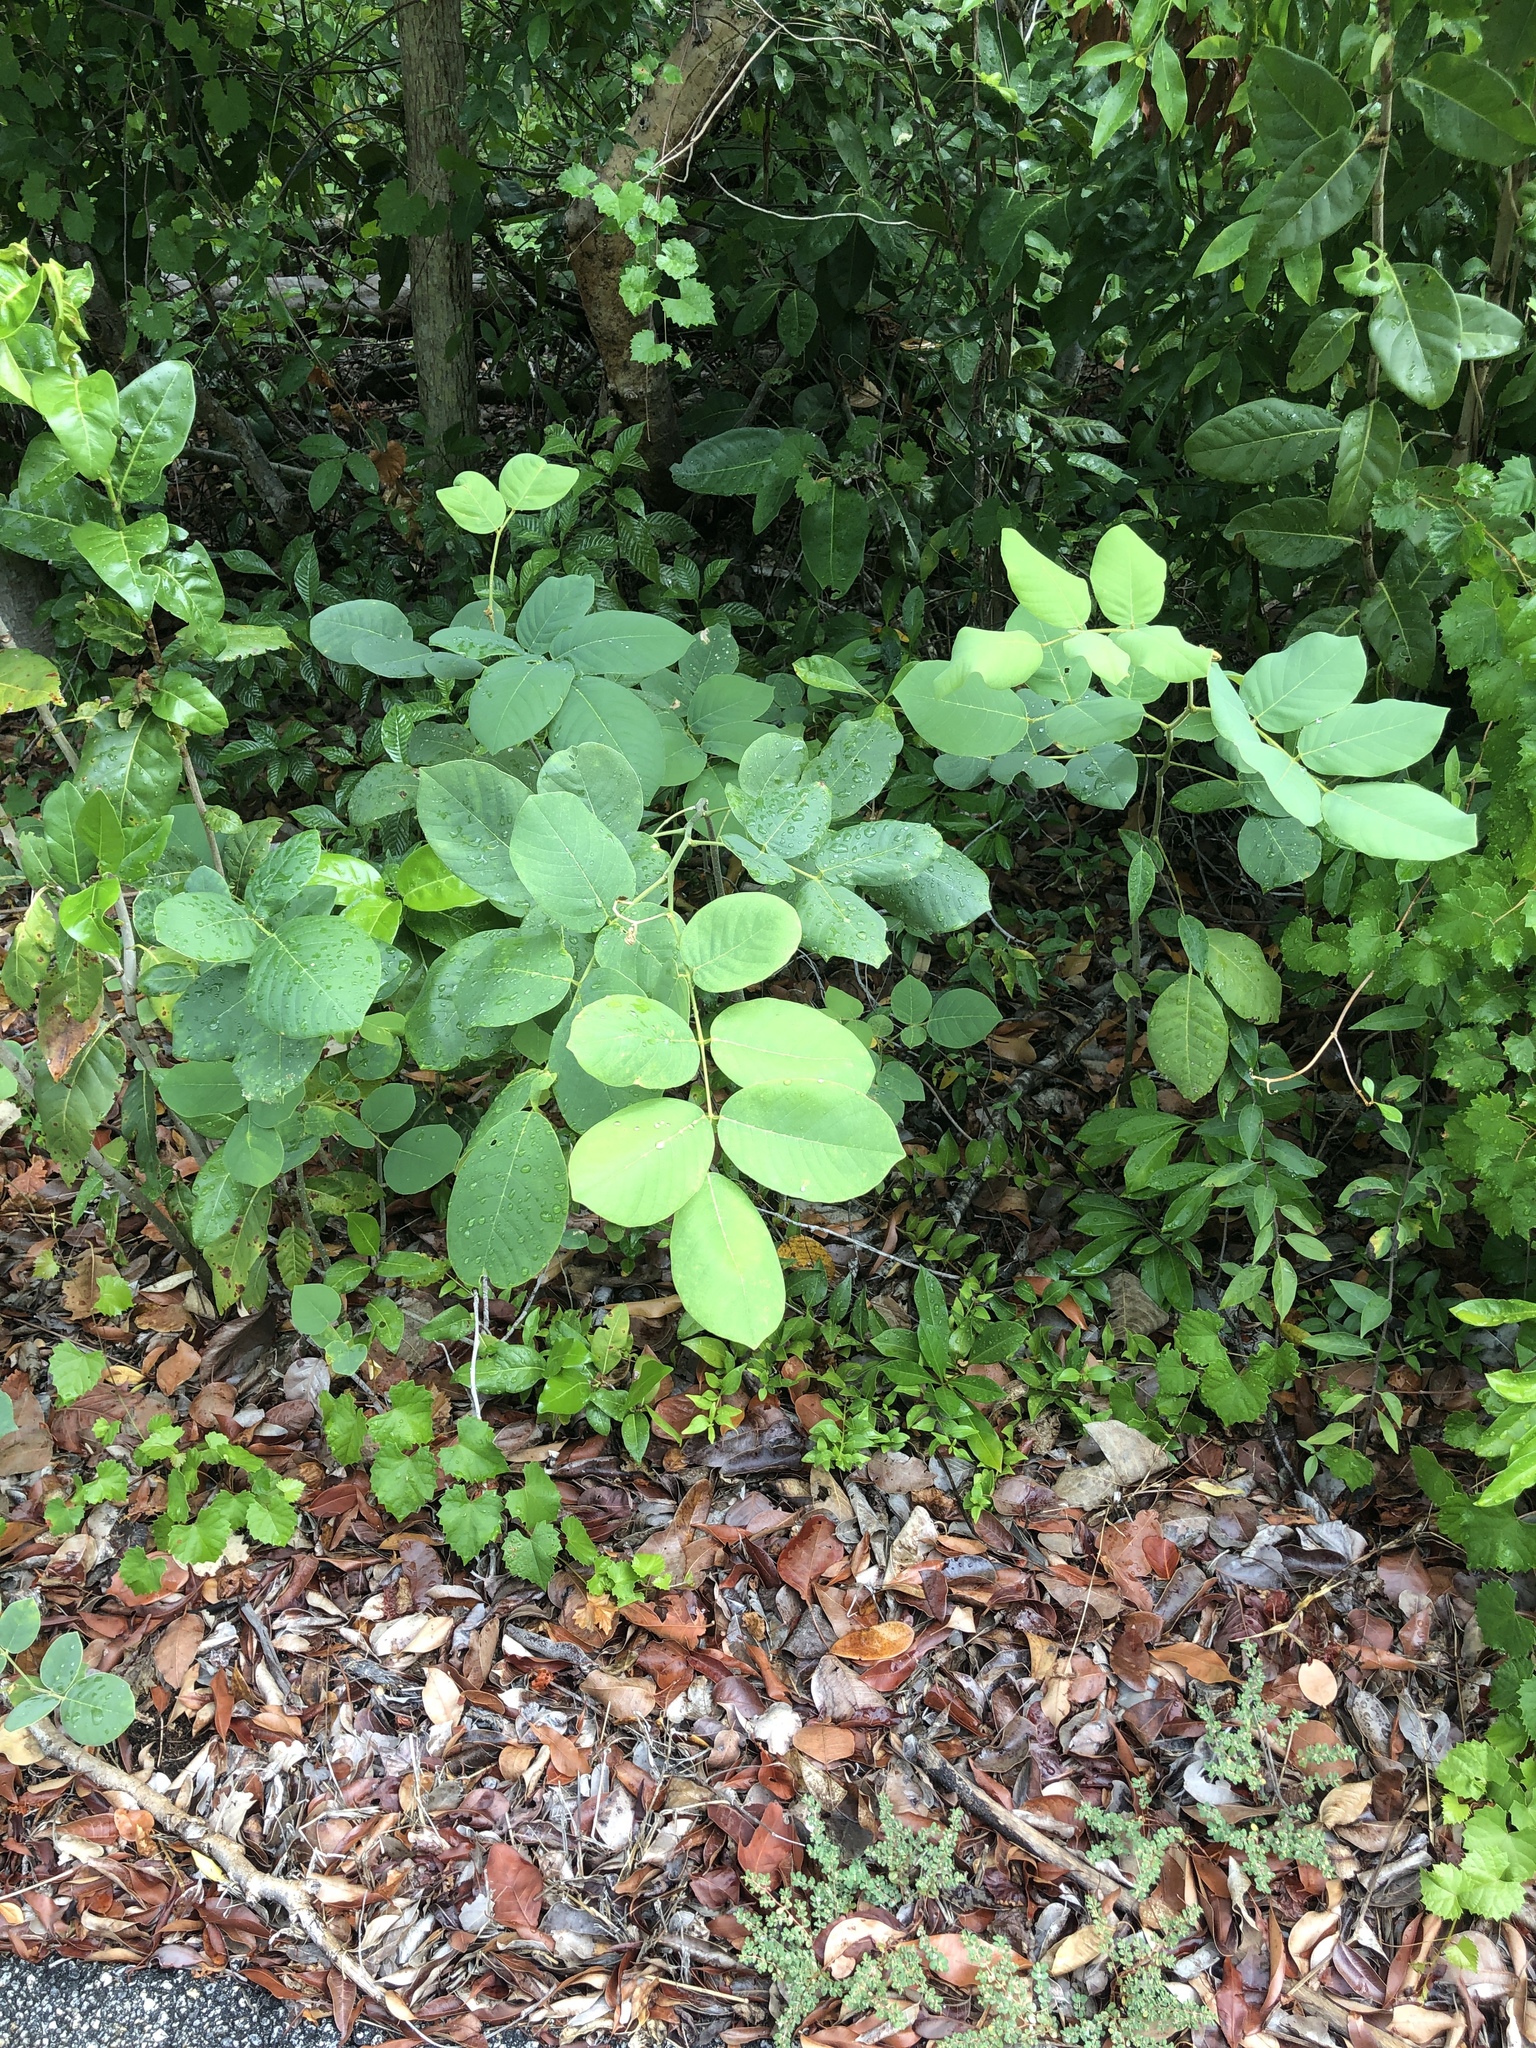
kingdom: Plantae
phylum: Tracheophyta
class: Magnoliopsida
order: Fabales
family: Fabaceae
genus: Piscidia
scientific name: Piscidia piscipula
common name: Florida fishpoison tree
